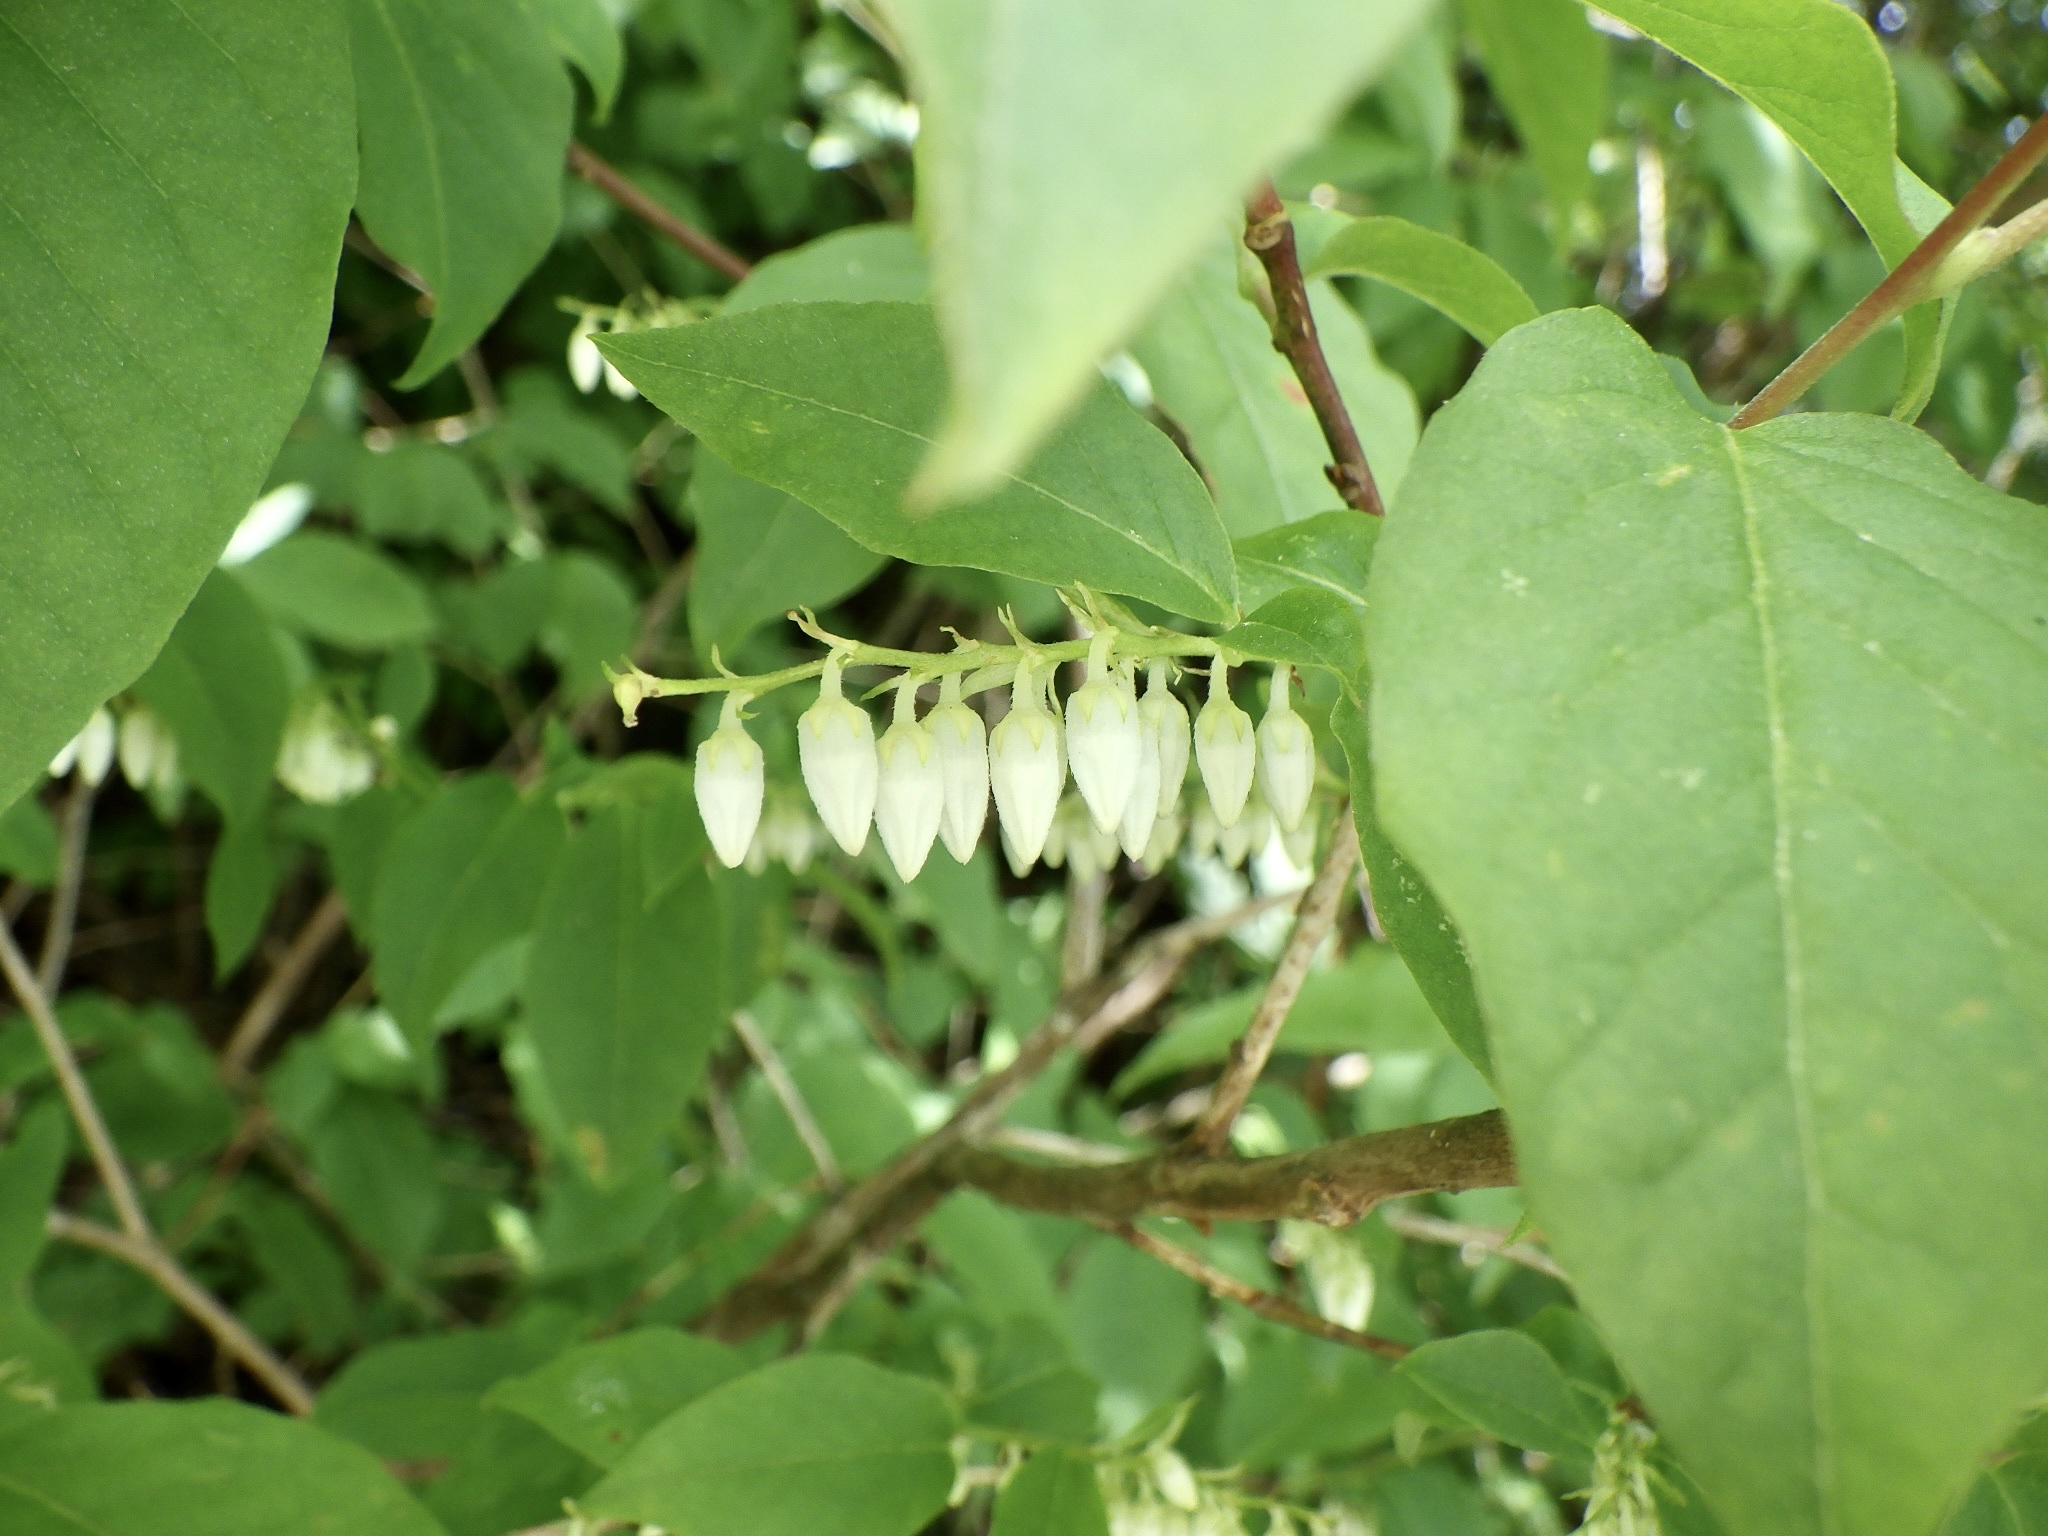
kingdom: Plantae
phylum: Tracheophyta
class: Magnoliopsida
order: Ericales
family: Ericaceae
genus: Lyonia
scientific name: Lyonia ovalifolia
